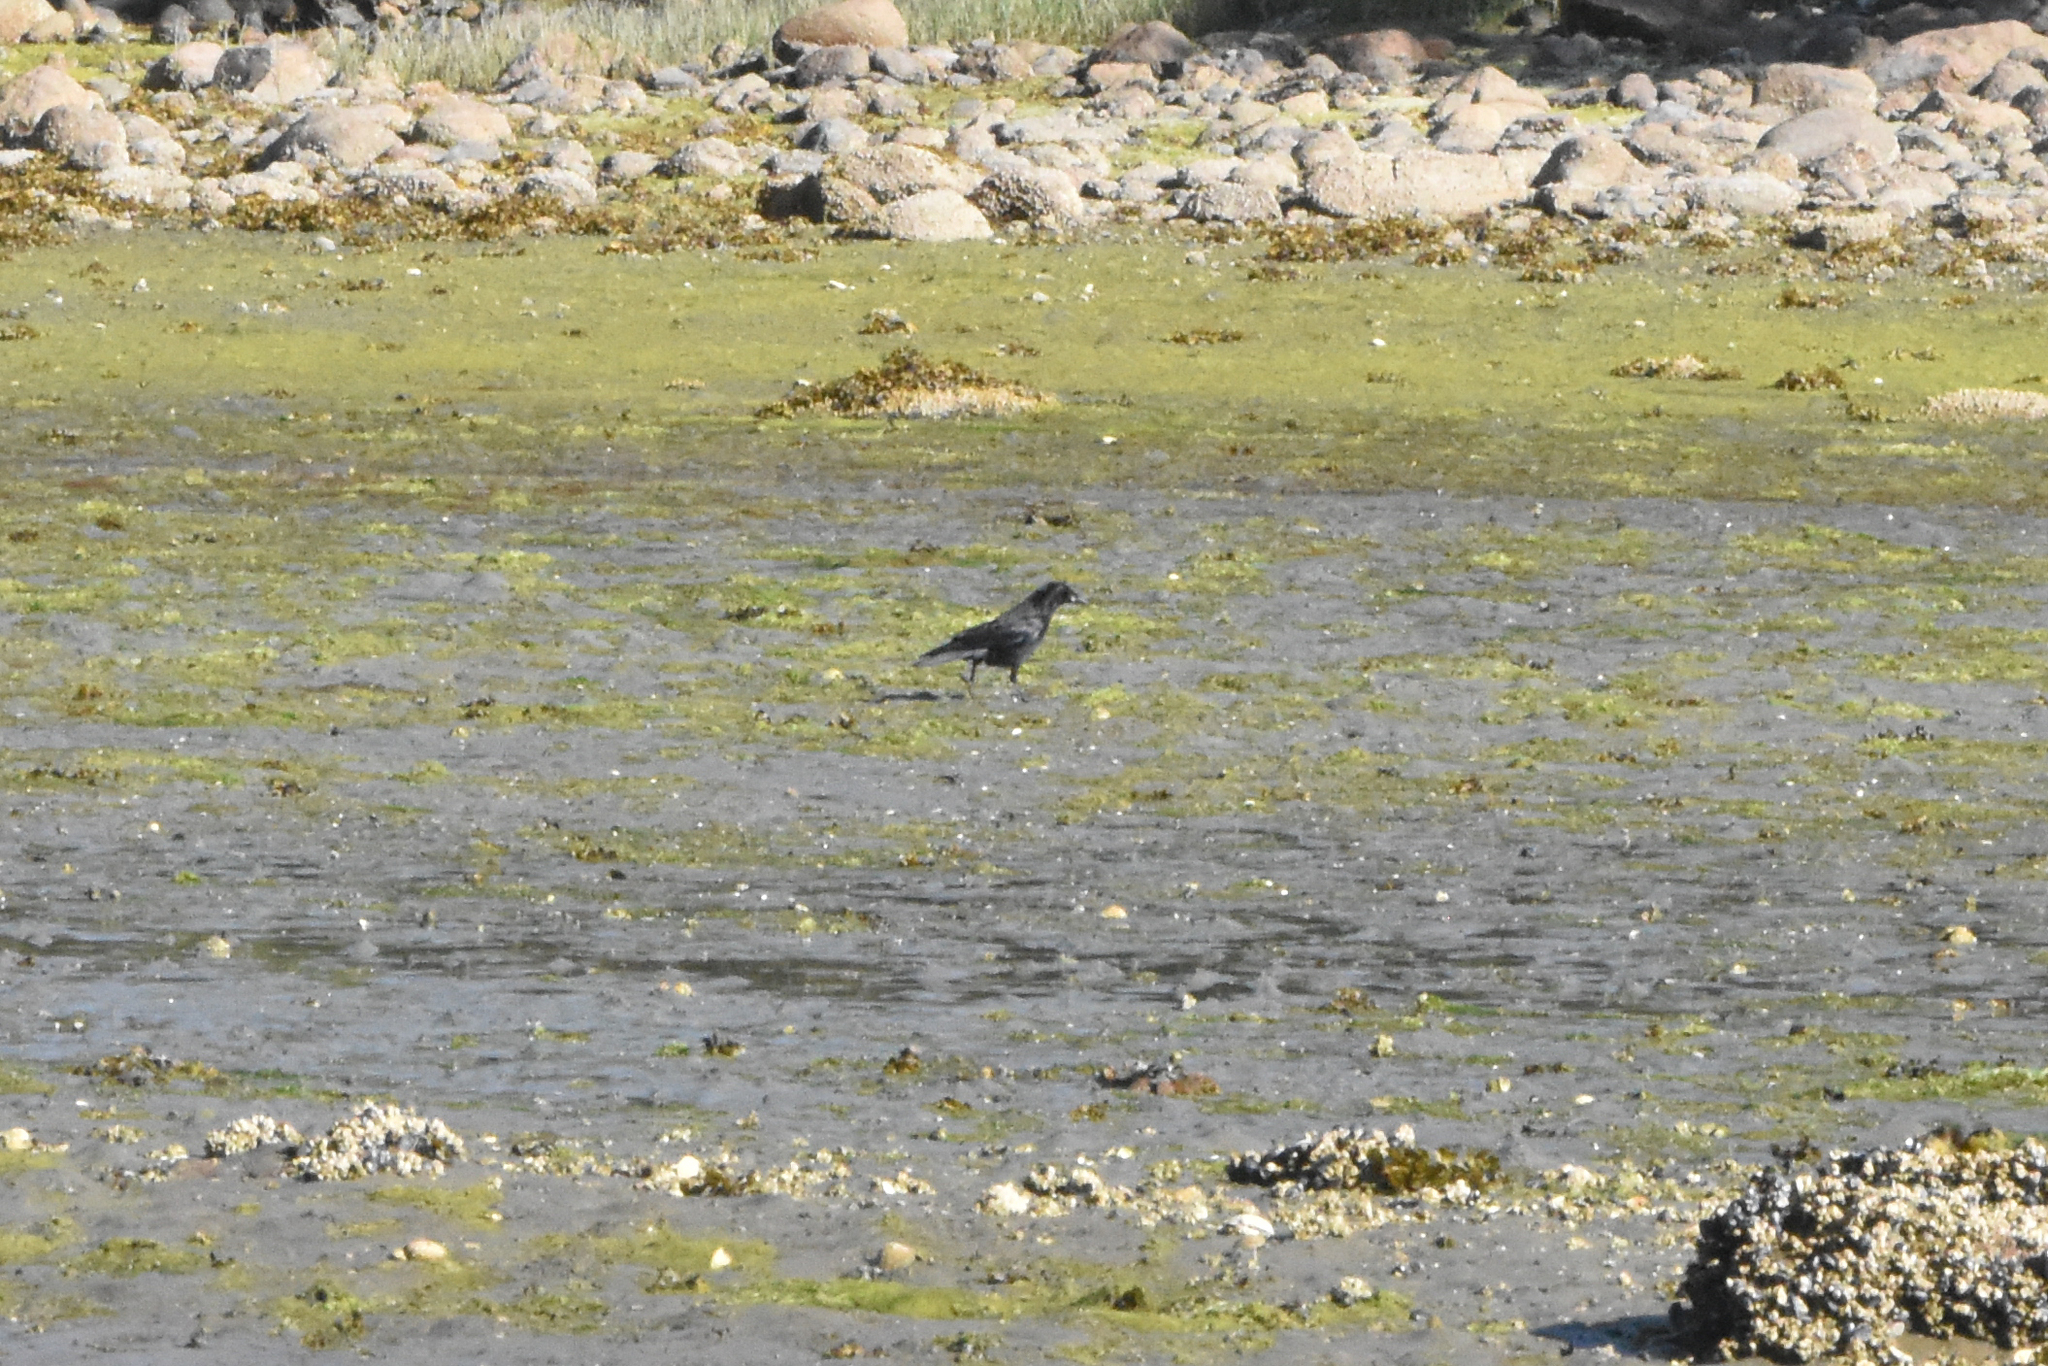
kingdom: Animalia
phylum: Chordata
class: Aves
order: Passeriformes
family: Corvidae
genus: Corvus
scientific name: Corvus brachyrhynchos
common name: American crow
